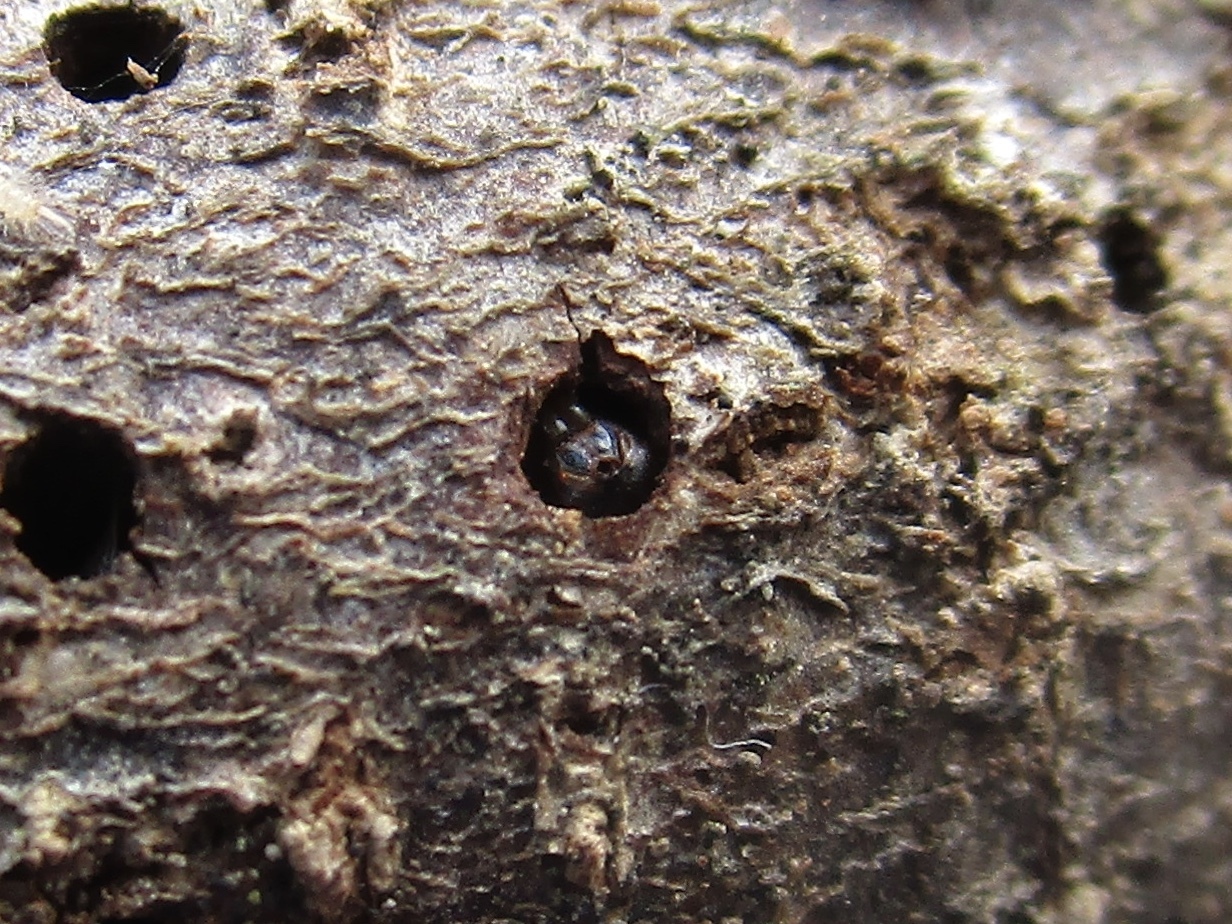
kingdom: Animalia
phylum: Arthropoda
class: Insecta
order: Hymenoptera
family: Cynipidae
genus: Callirhytis
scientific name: Callirhytis
